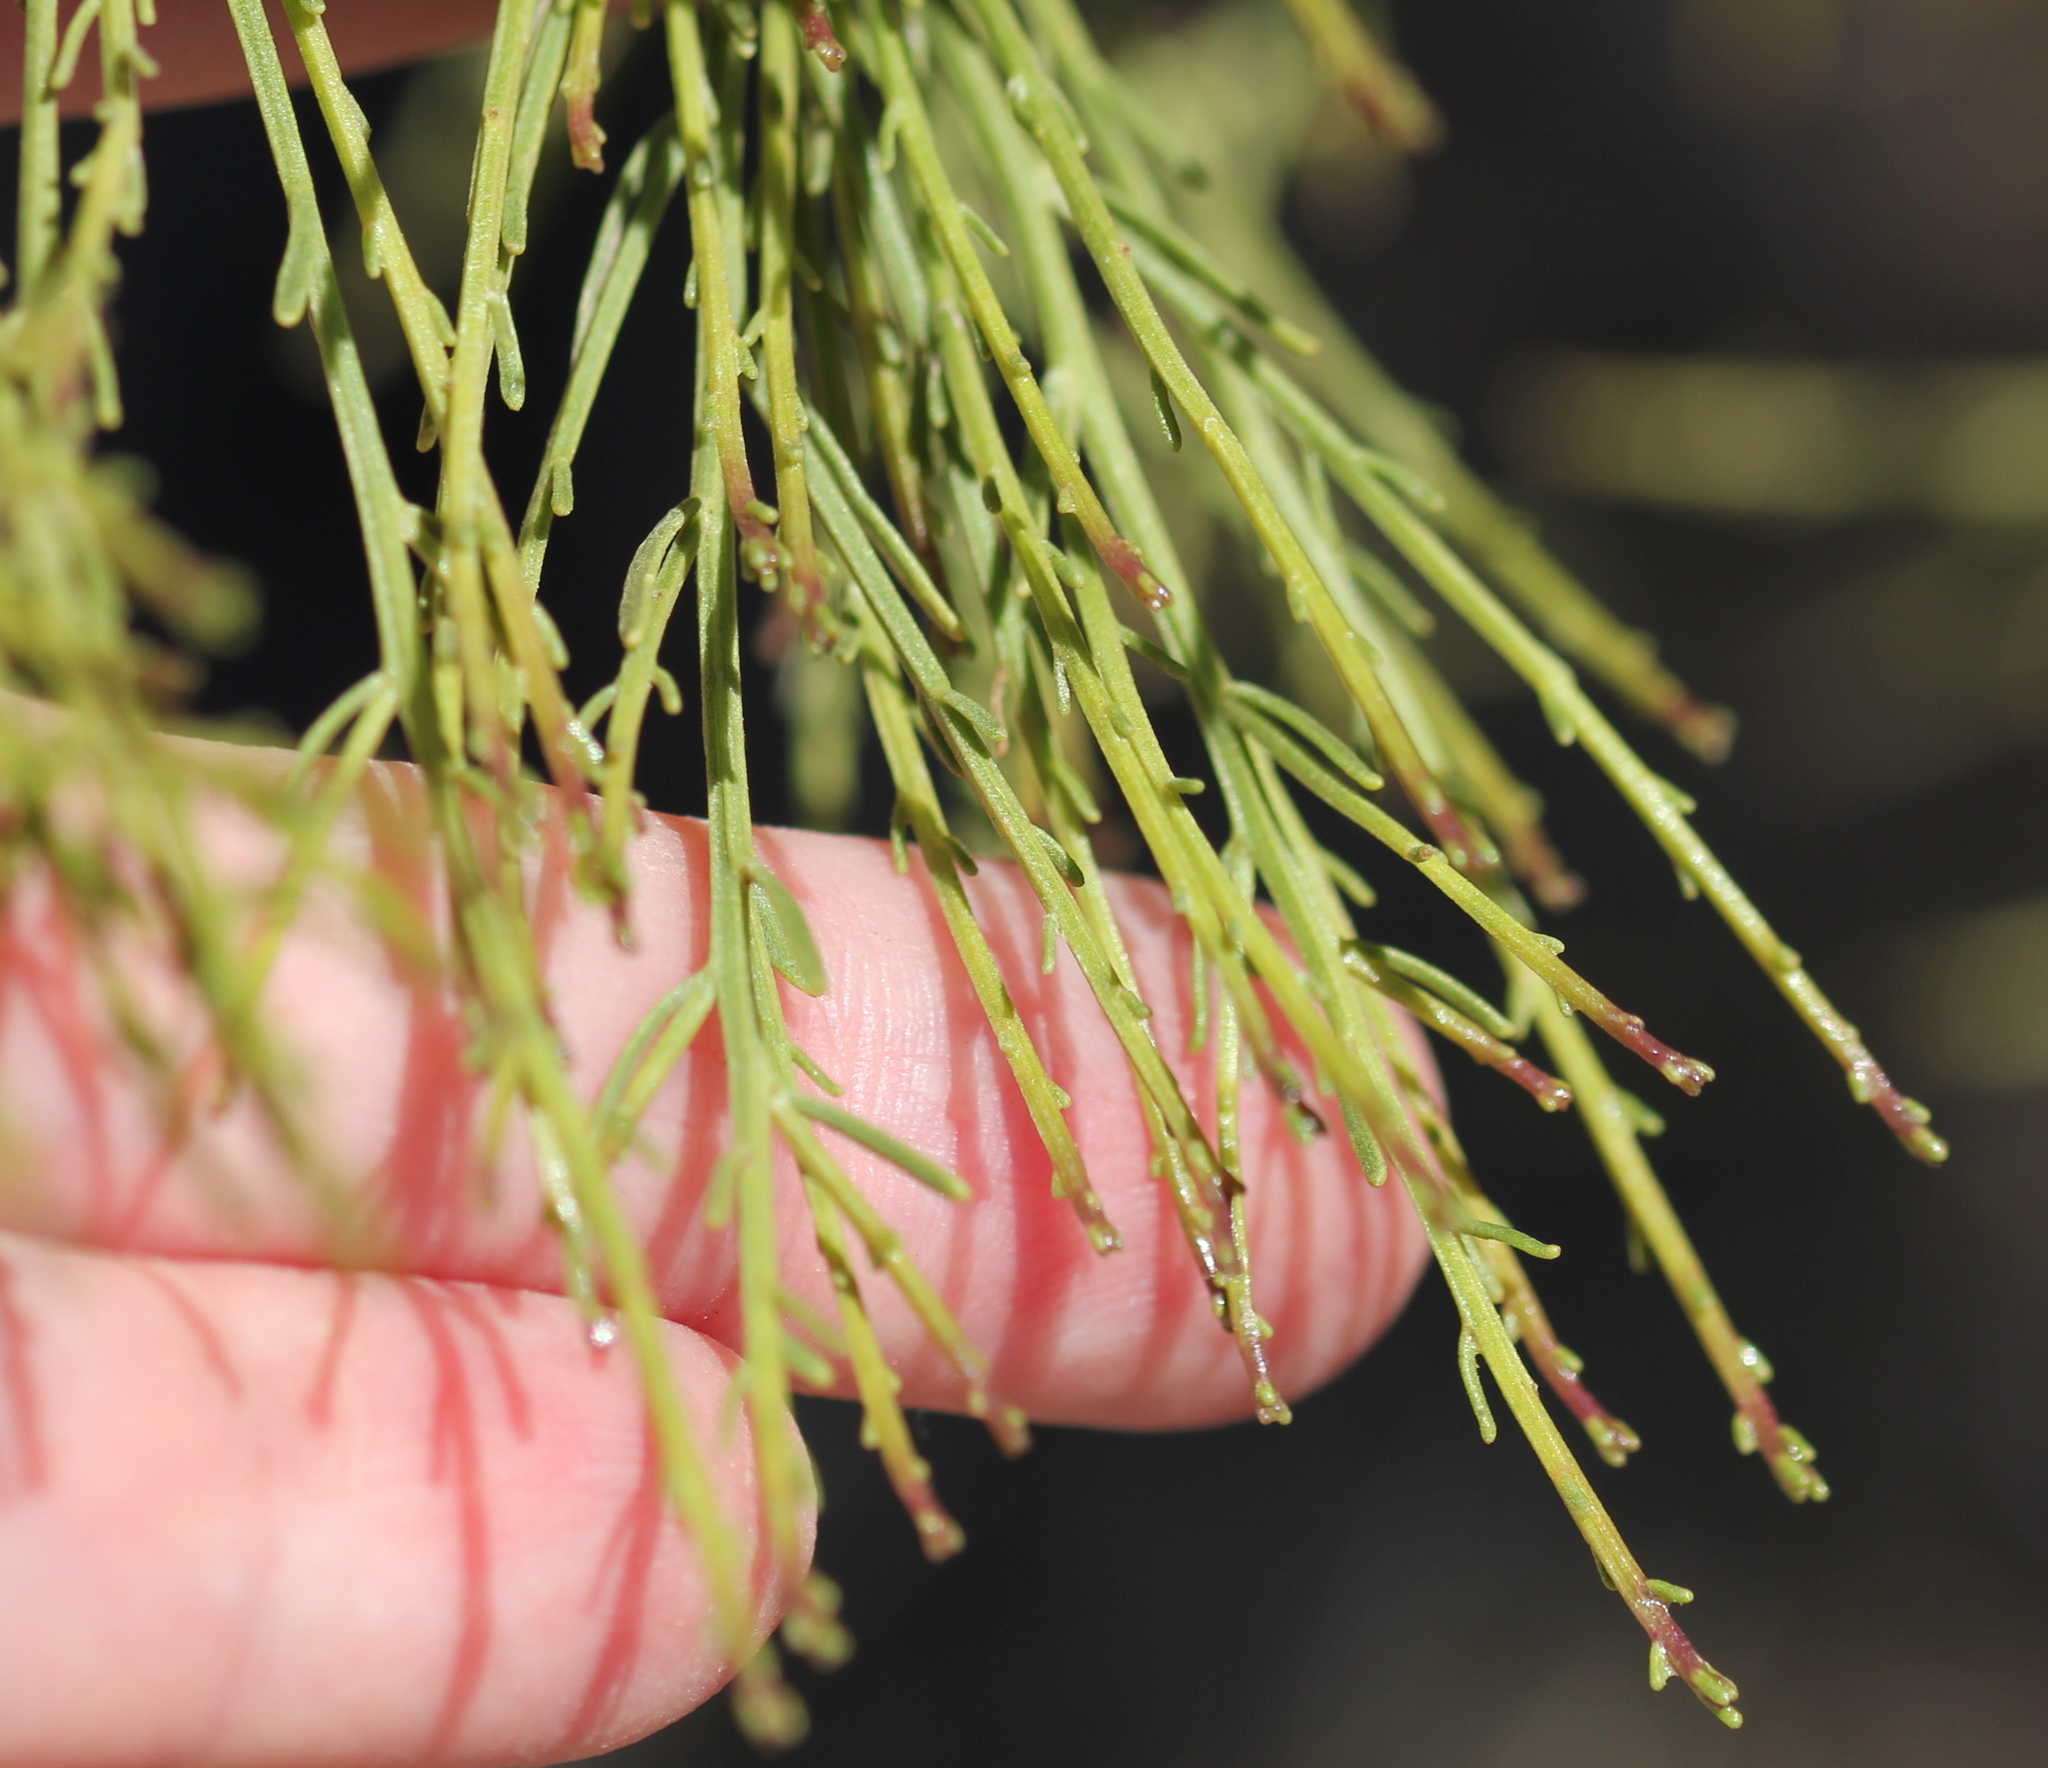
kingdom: Plantae
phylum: Tracheophyta
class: Magnoliopsida
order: Asterales
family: Asteraceae
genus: Baccharis
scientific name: Baccharis sarothroides
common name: Desert-broom
